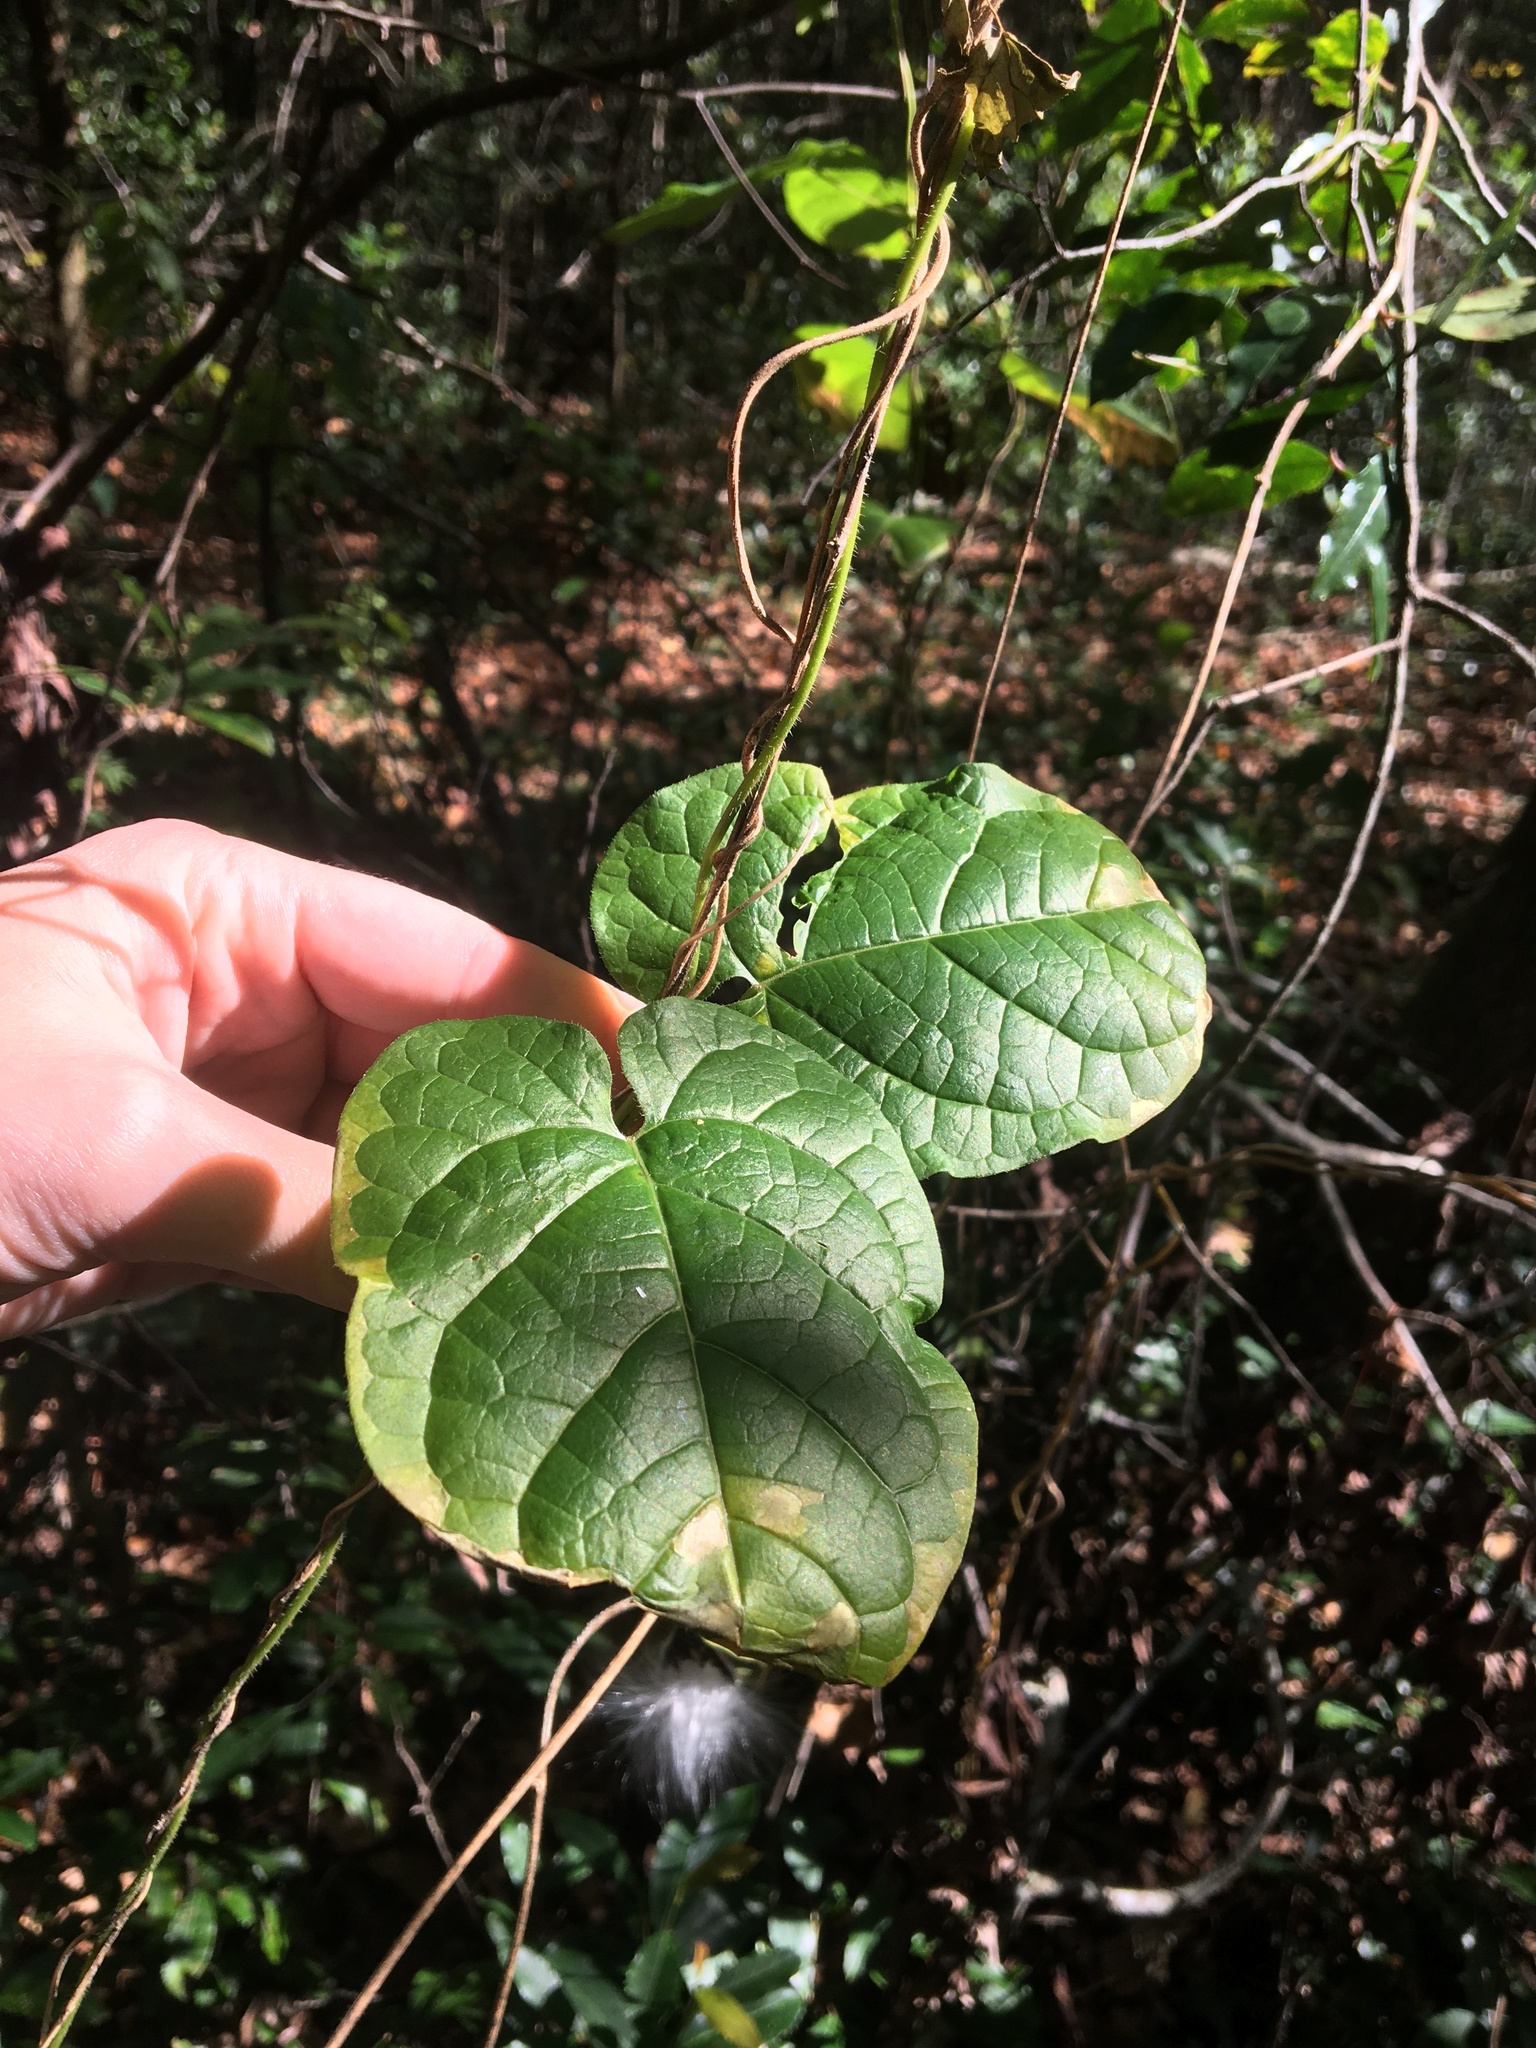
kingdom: Plantae
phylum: Tracheophyta
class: Magnoliopsida
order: Gentianales
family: Apocynaceae
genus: Gonolobus
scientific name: Gonolobus suberosus
